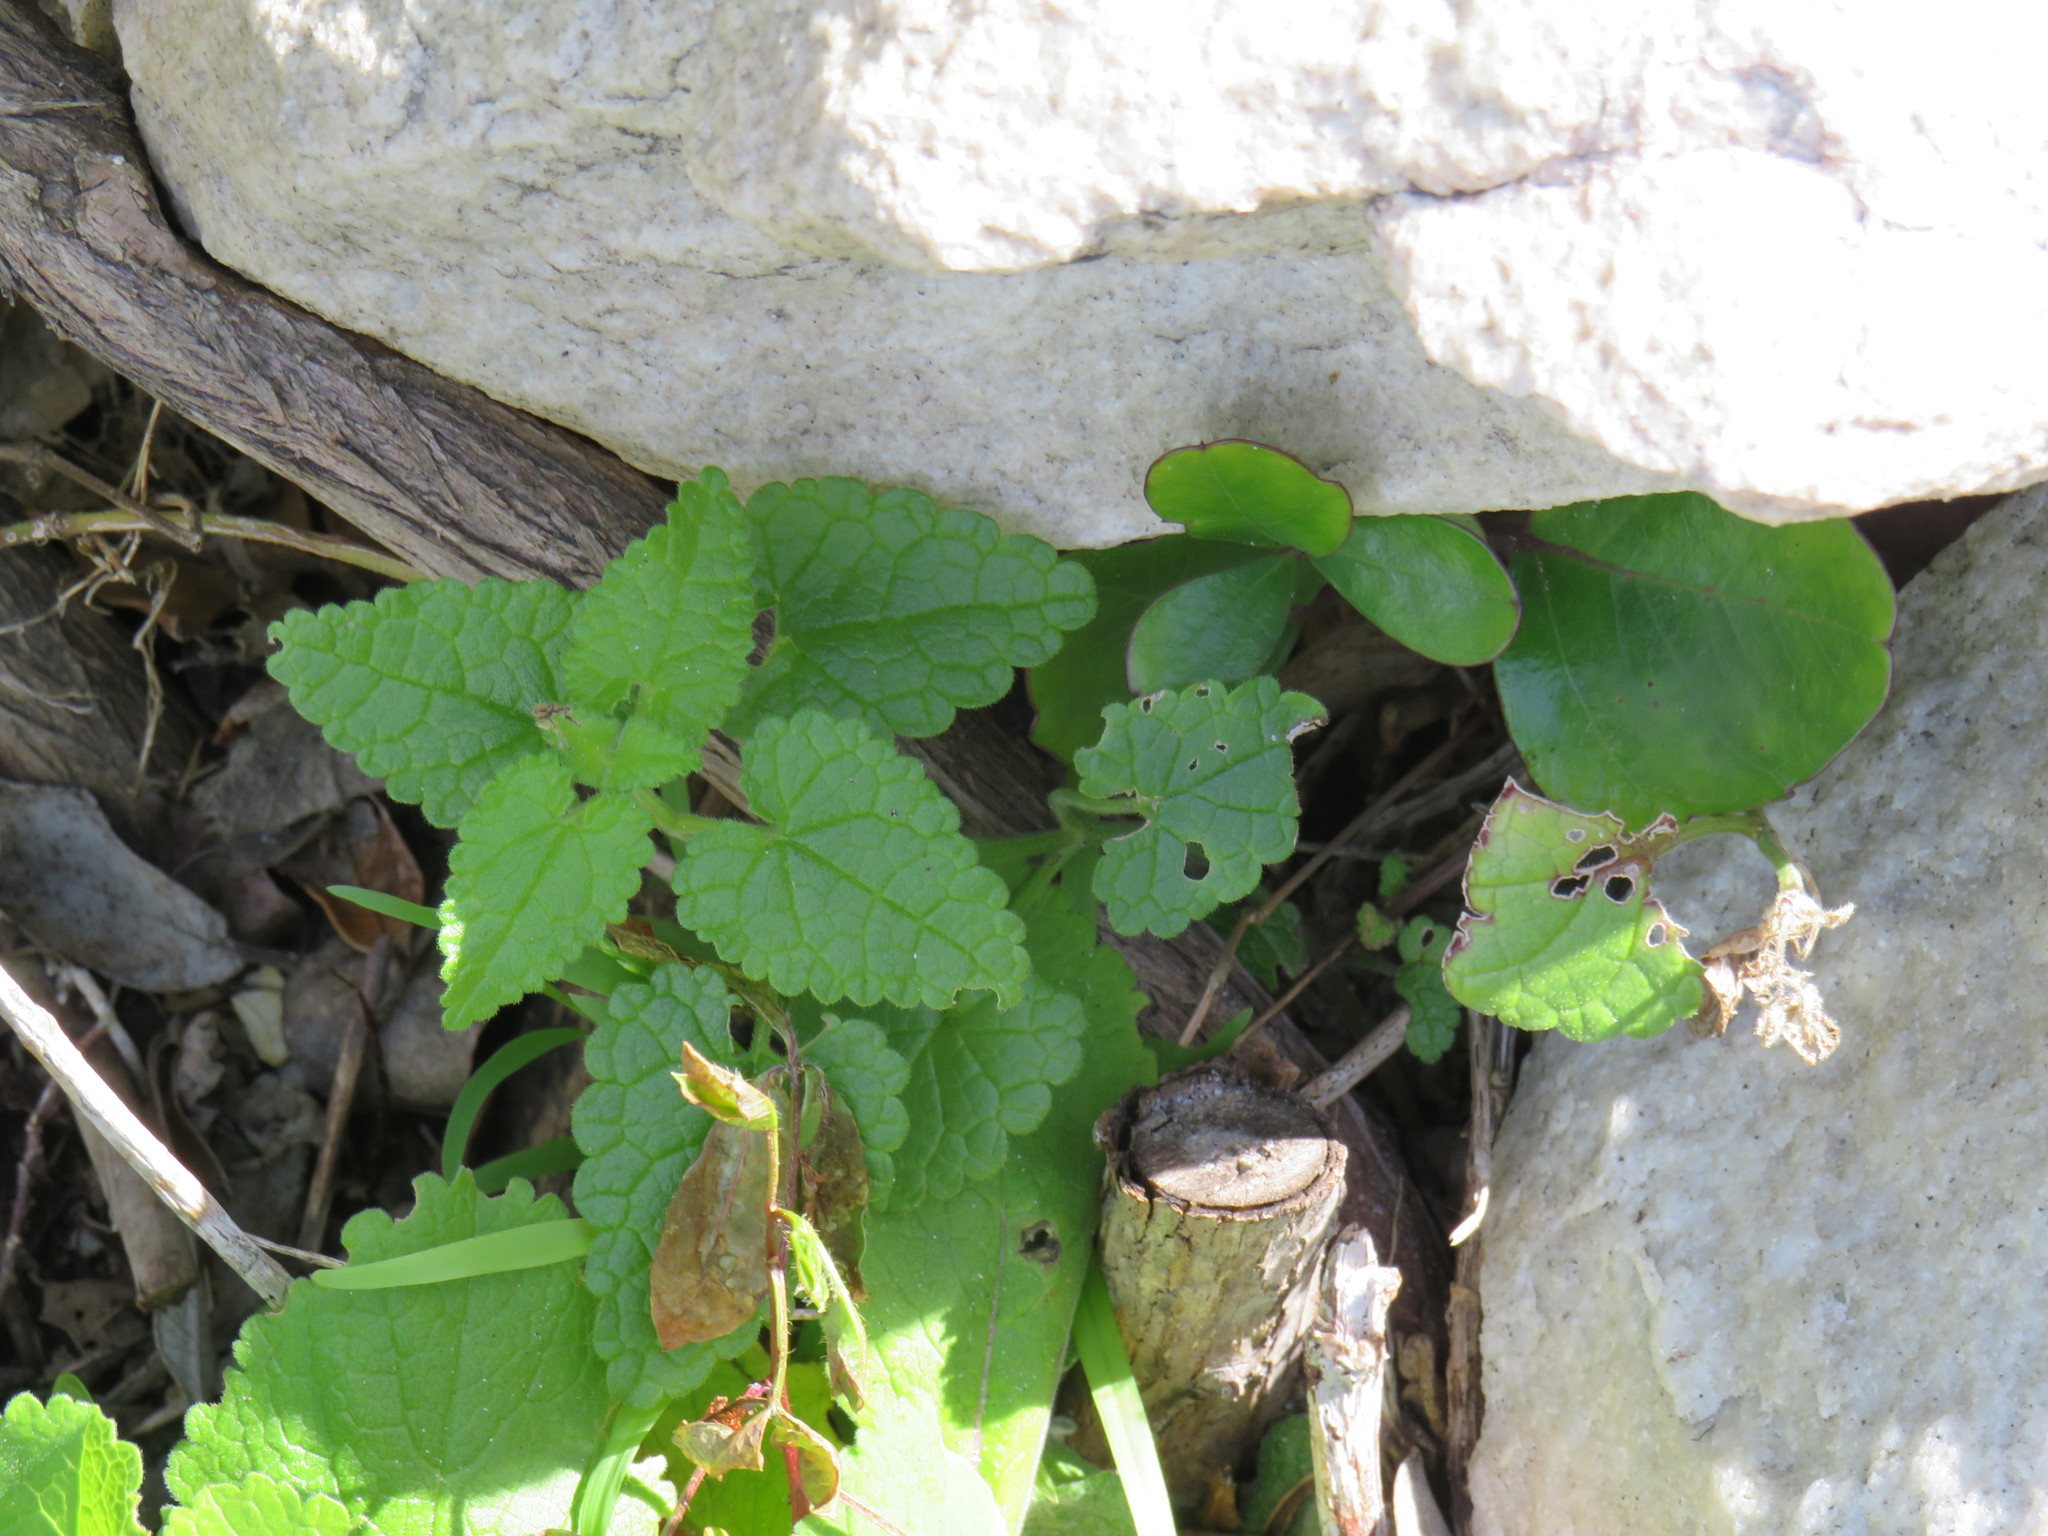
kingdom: Plantae
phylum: Tracheophyta
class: Magnoliopsida
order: Lamiales
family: Lamiaceae
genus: Stachys
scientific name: Stachys aethiopica
